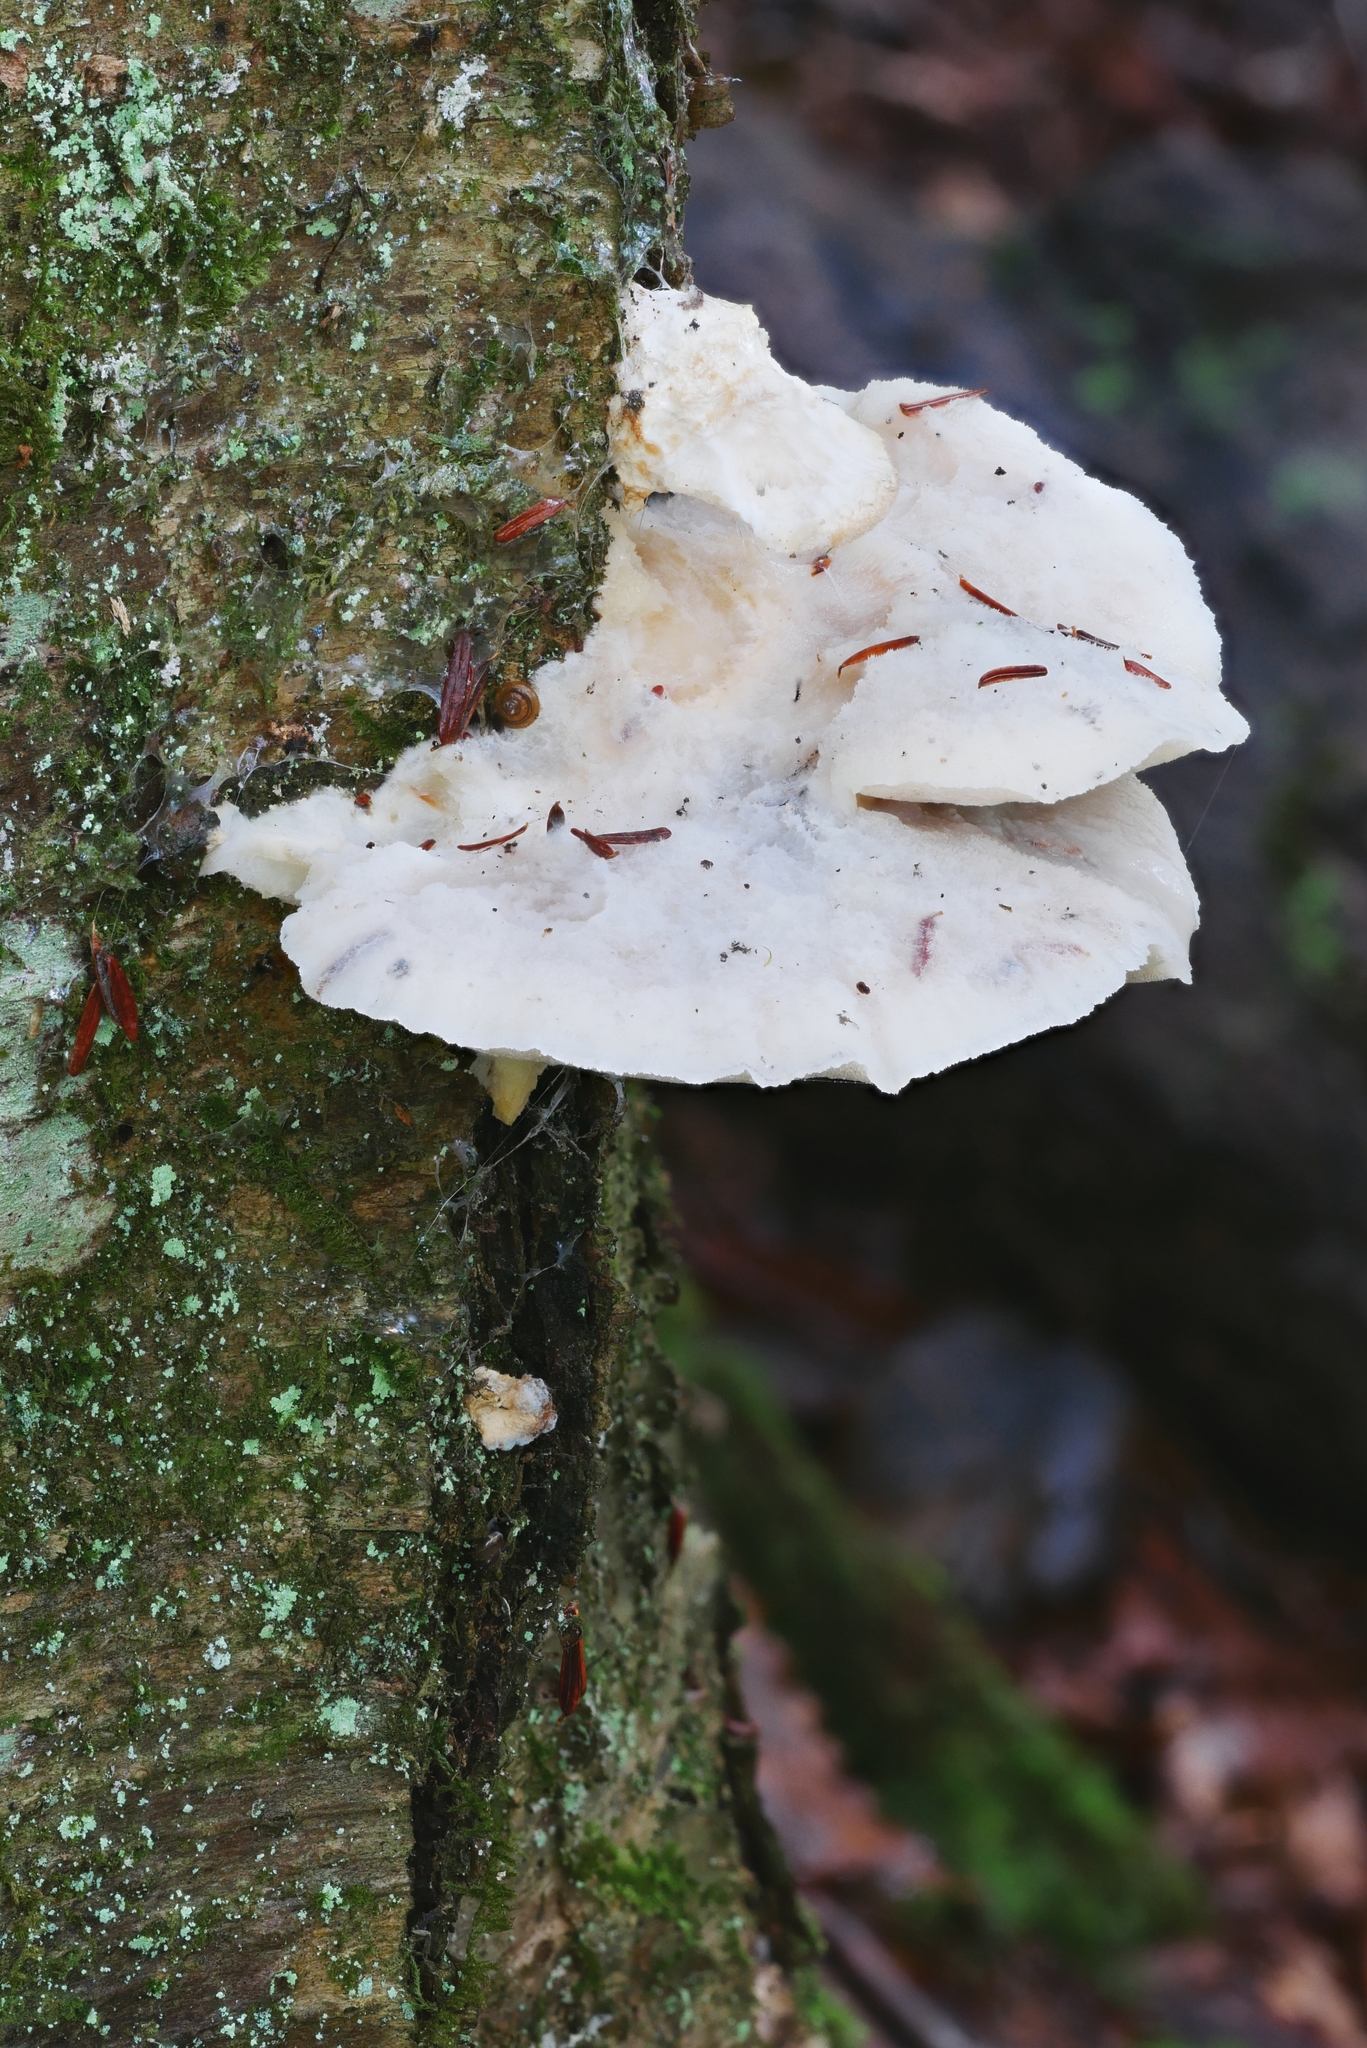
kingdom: Fungi
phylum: Basidiomycota
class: Agaricomycetes
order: Polyporales
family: Incrustoporiaceae
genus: Tyromyces
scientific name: Tyromyces galactinus
